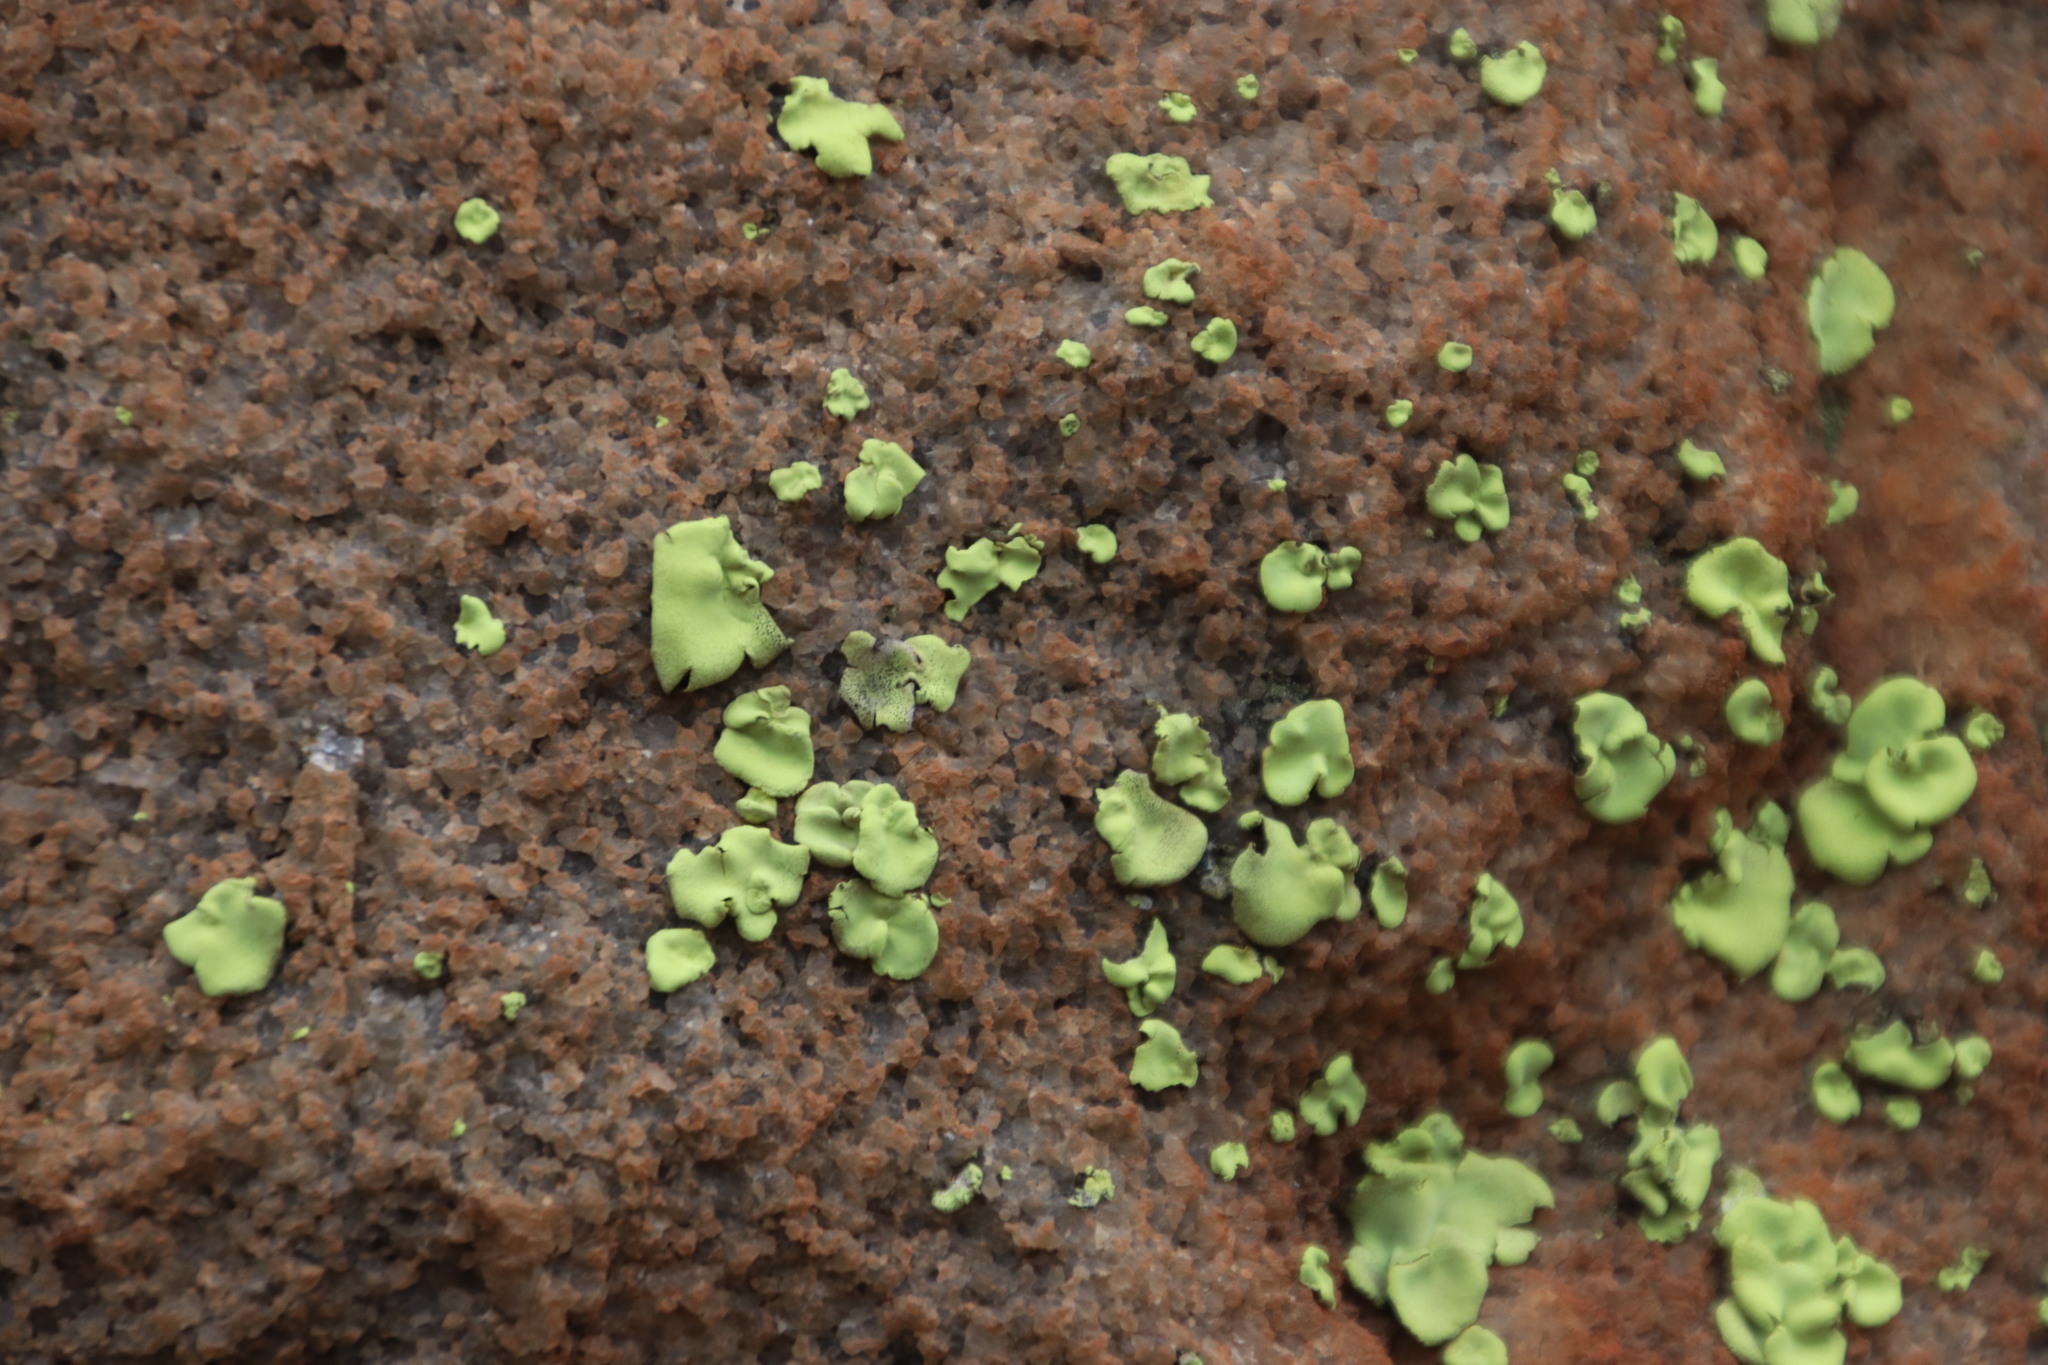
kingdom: Fungi
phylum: Ascomycota
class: Lecanoromycetes
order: Caliciales
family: Caliciaceae
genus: Dermatiscum
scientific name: Dermatiscum thunbergii
